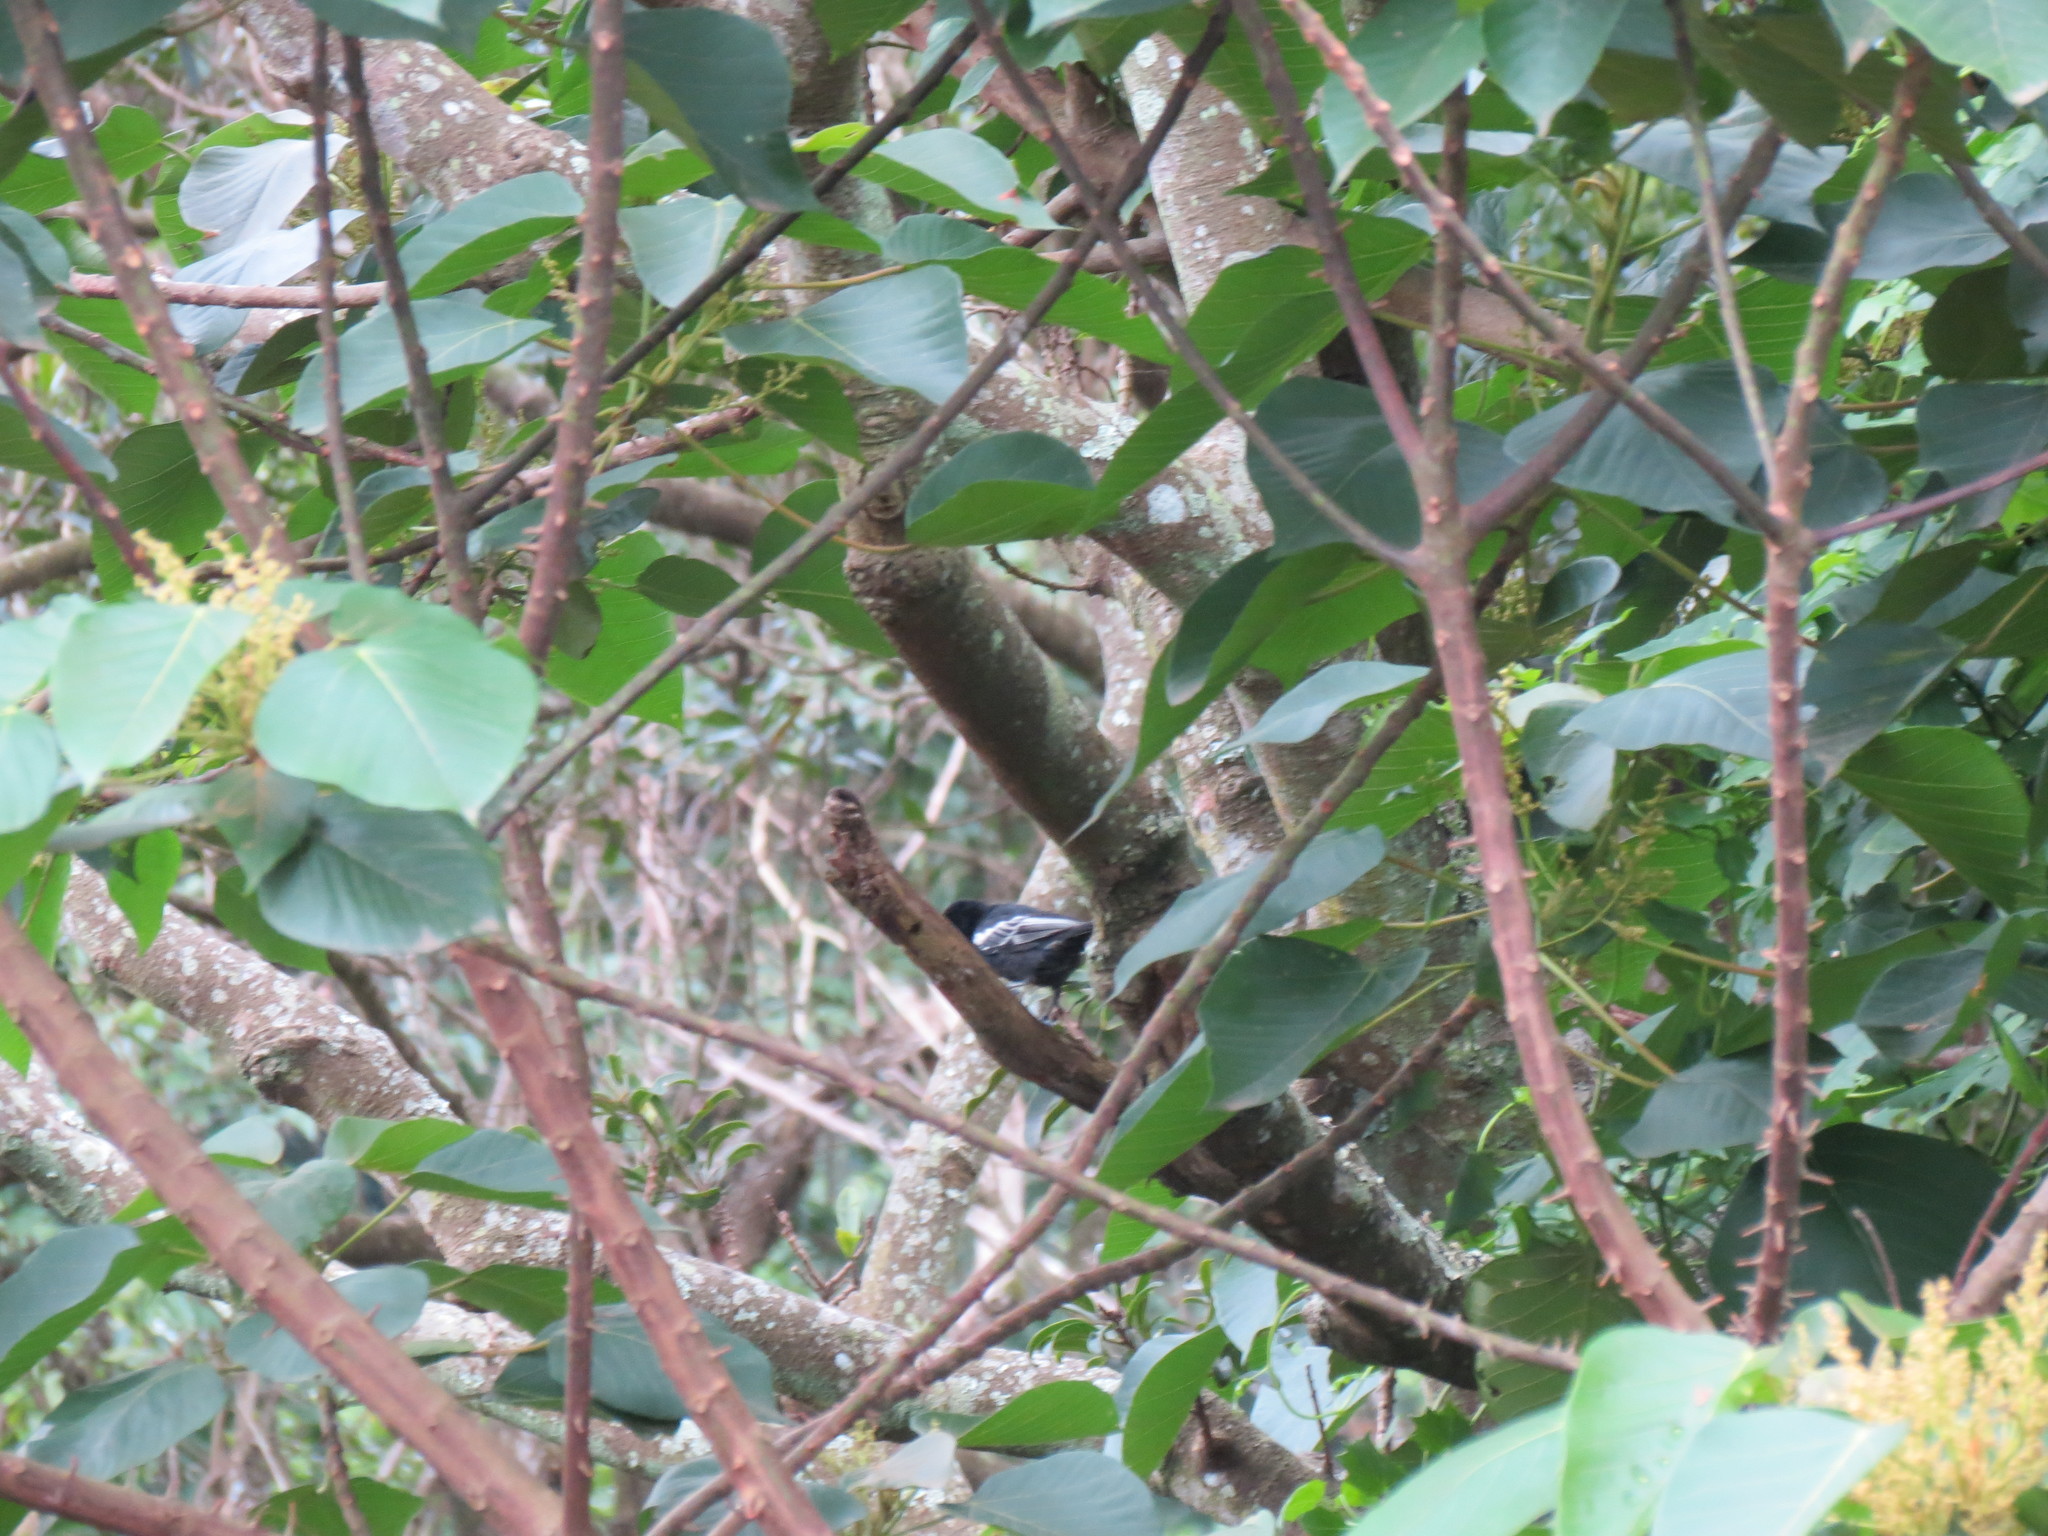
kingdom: Animalia
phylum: Chordata
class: Aves
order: Passeriformes
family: Paridae
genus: Parus
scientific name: Parus niger
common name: Southern black tit
